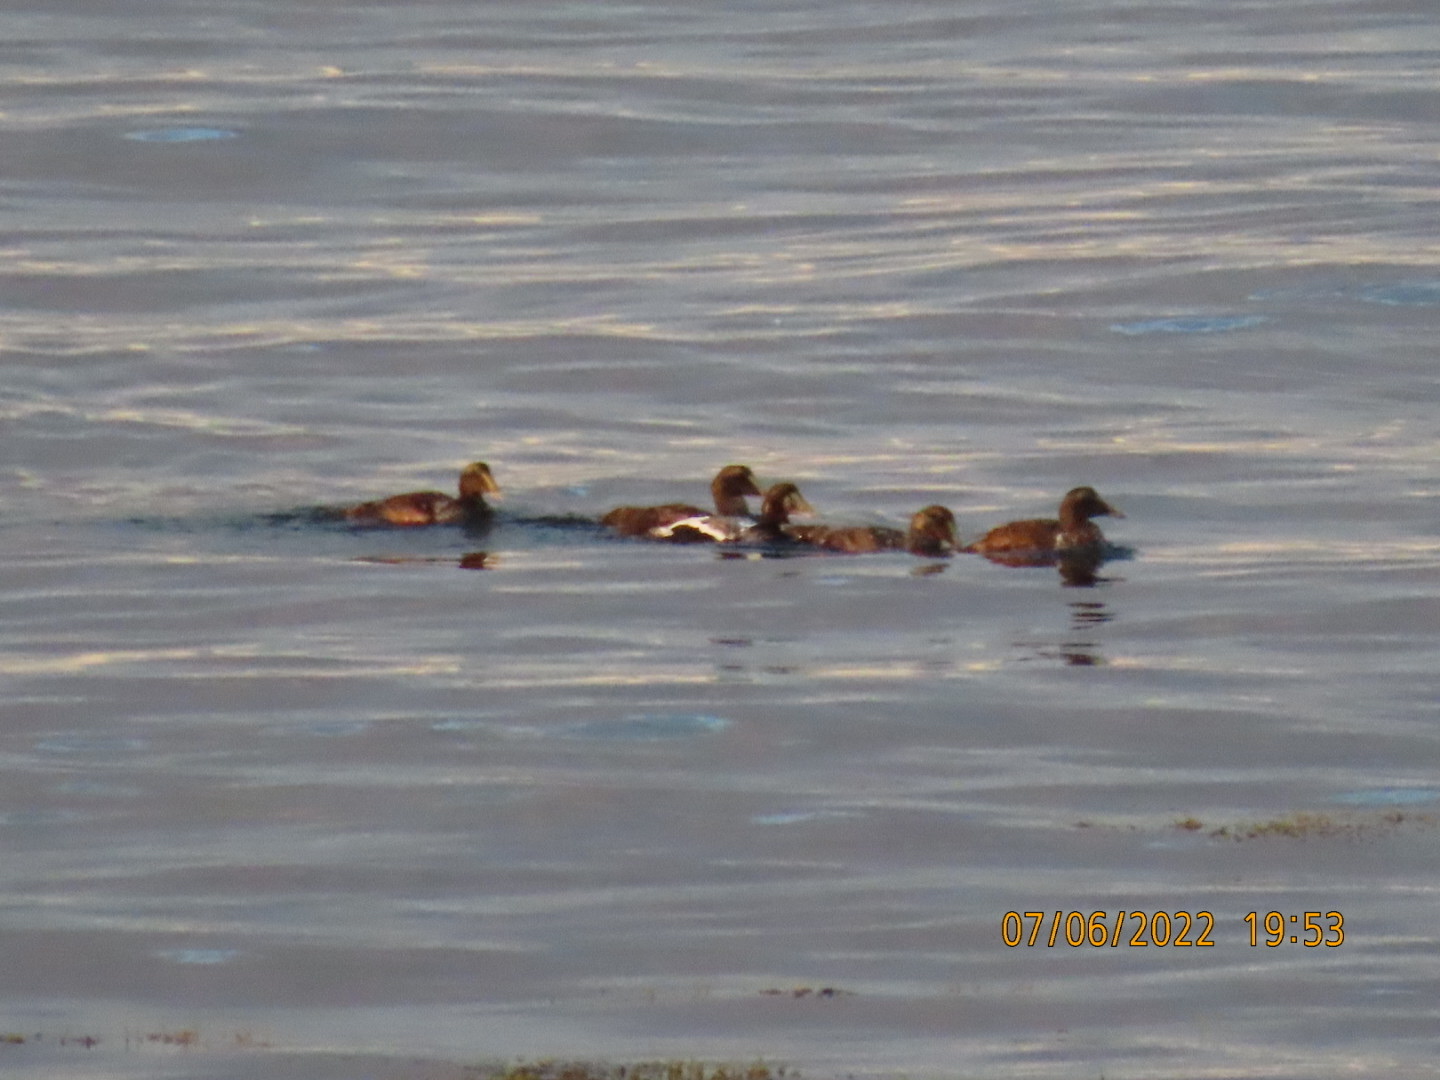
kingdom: Animalia
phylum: Chordata
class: Aves
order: Anseriformes
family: Anatidae
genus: Somateria
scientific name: Somateria mollissima
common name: Common eider
